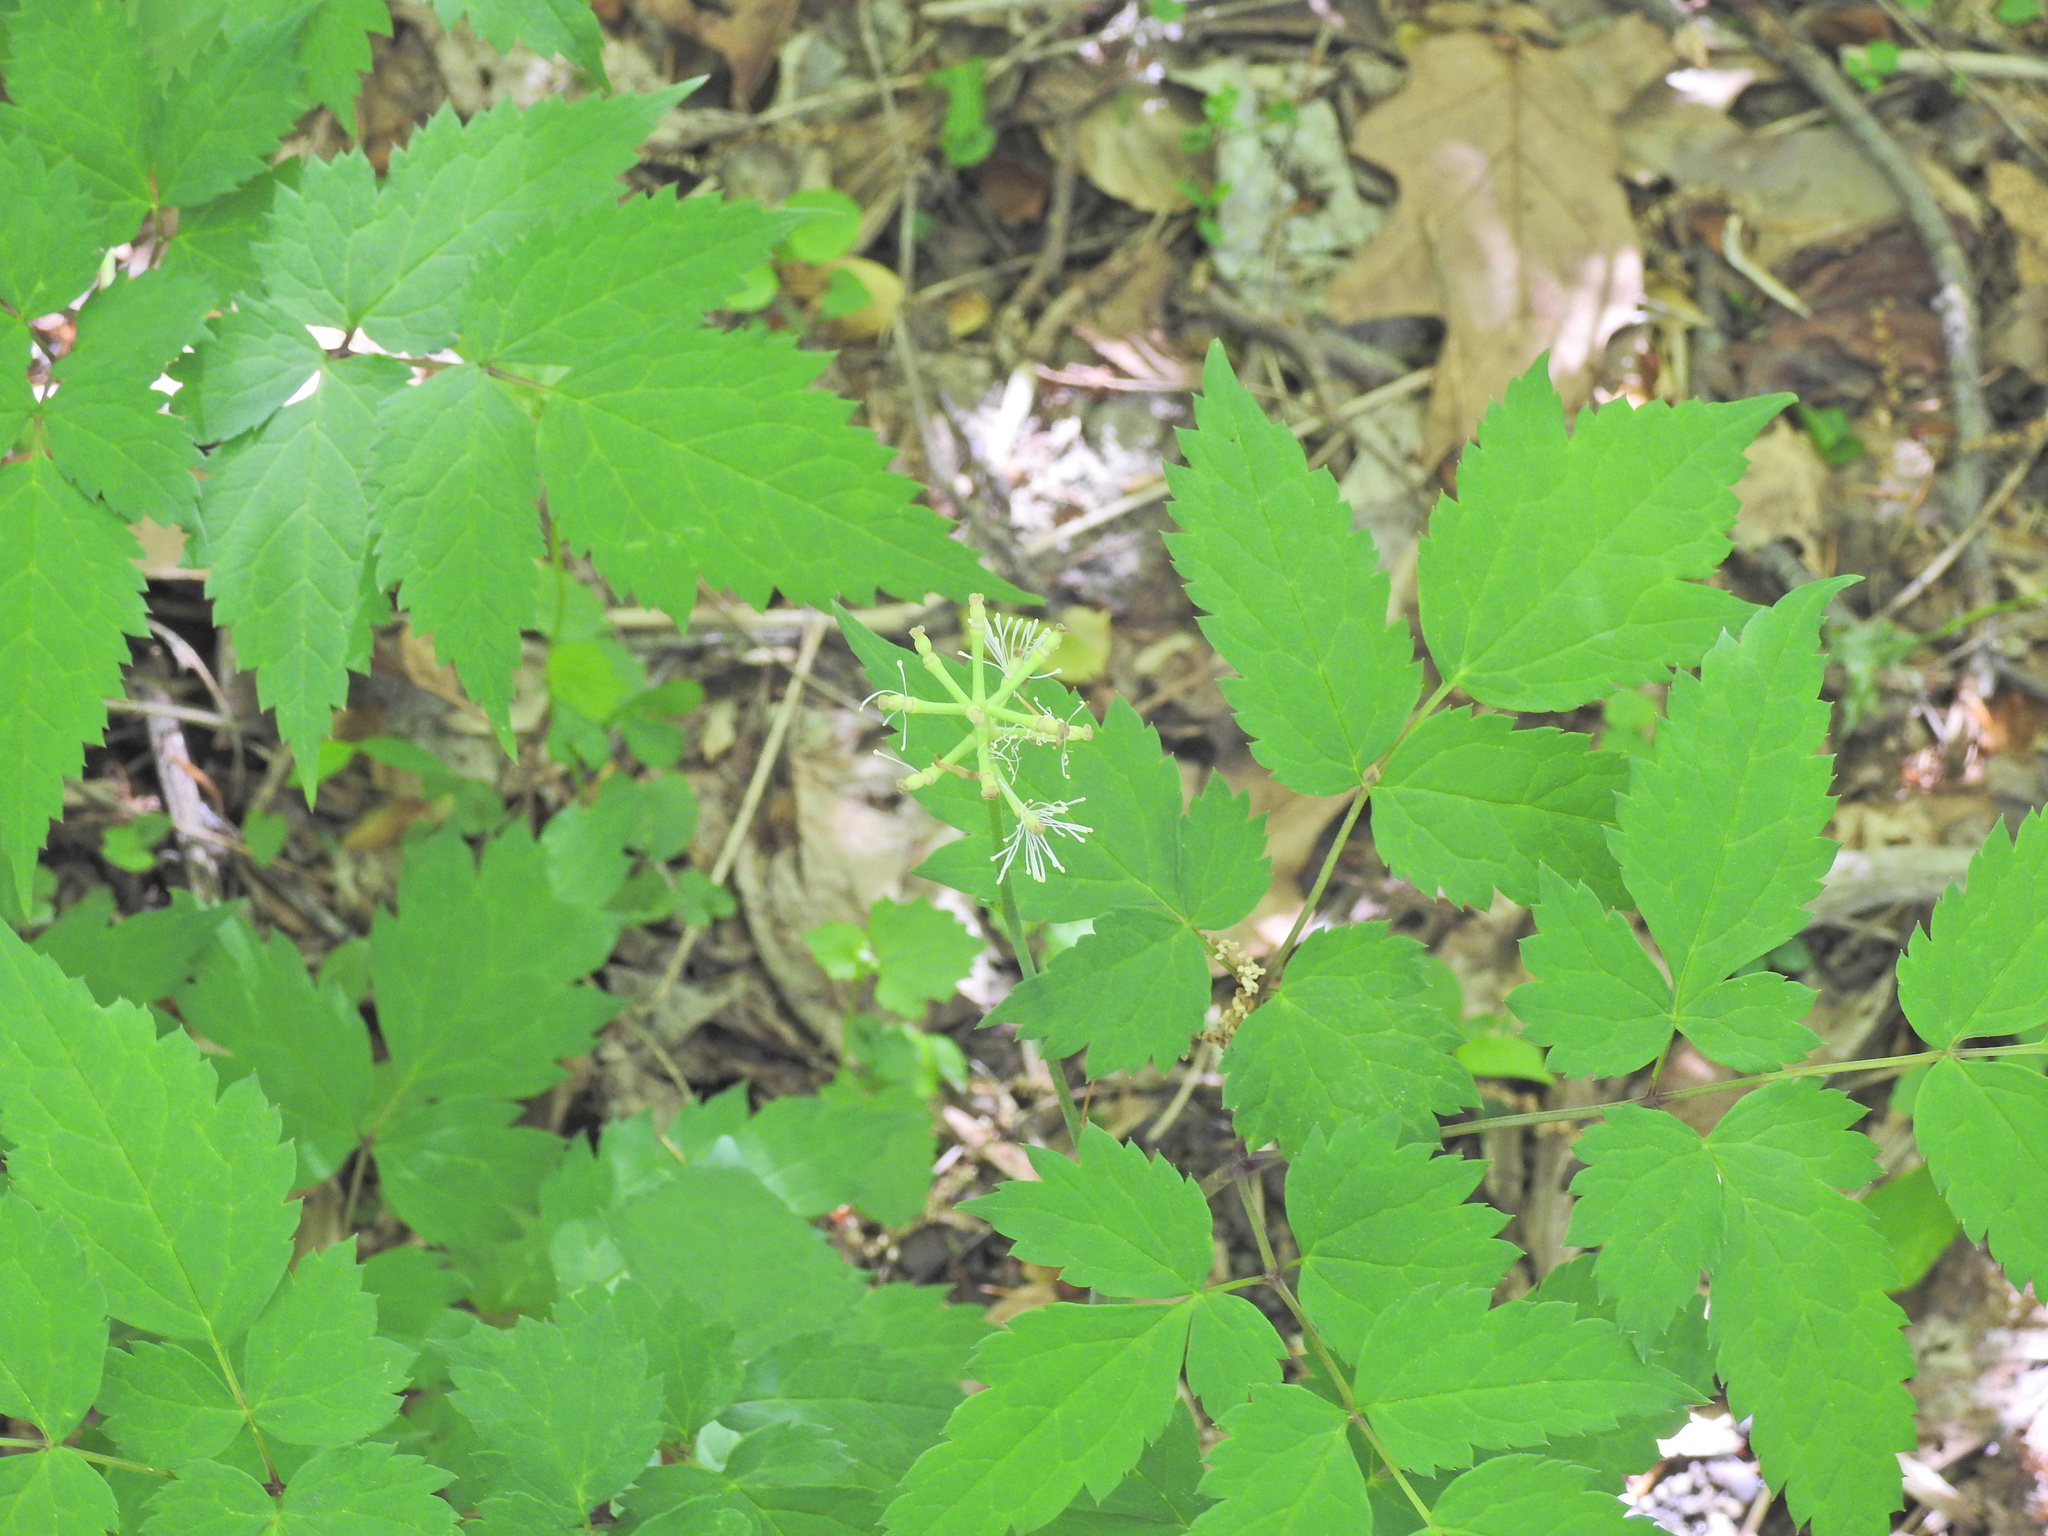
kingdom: Plantae
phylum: Tracheophyta
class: Magnoliopsida
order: Ranunculales
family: Ranunculaceae
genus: Actaea
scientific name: Actaea pachypoda
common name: Doll's-eyes
